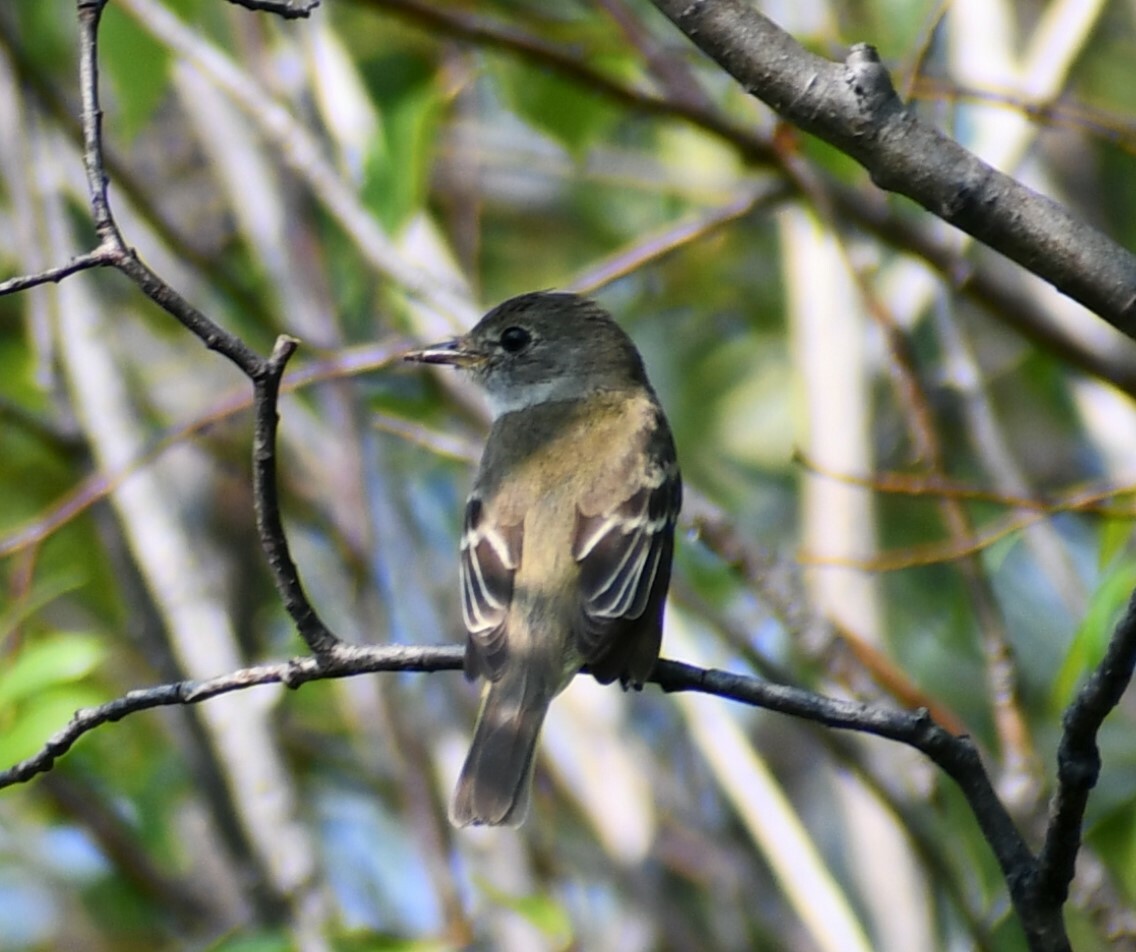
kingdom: Animalia
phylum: Chordata
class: Aves
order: Passeriformes
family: Tyrannidae
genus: Empidonax
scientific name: Empidonax alnorum
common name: Alder flycatcher
